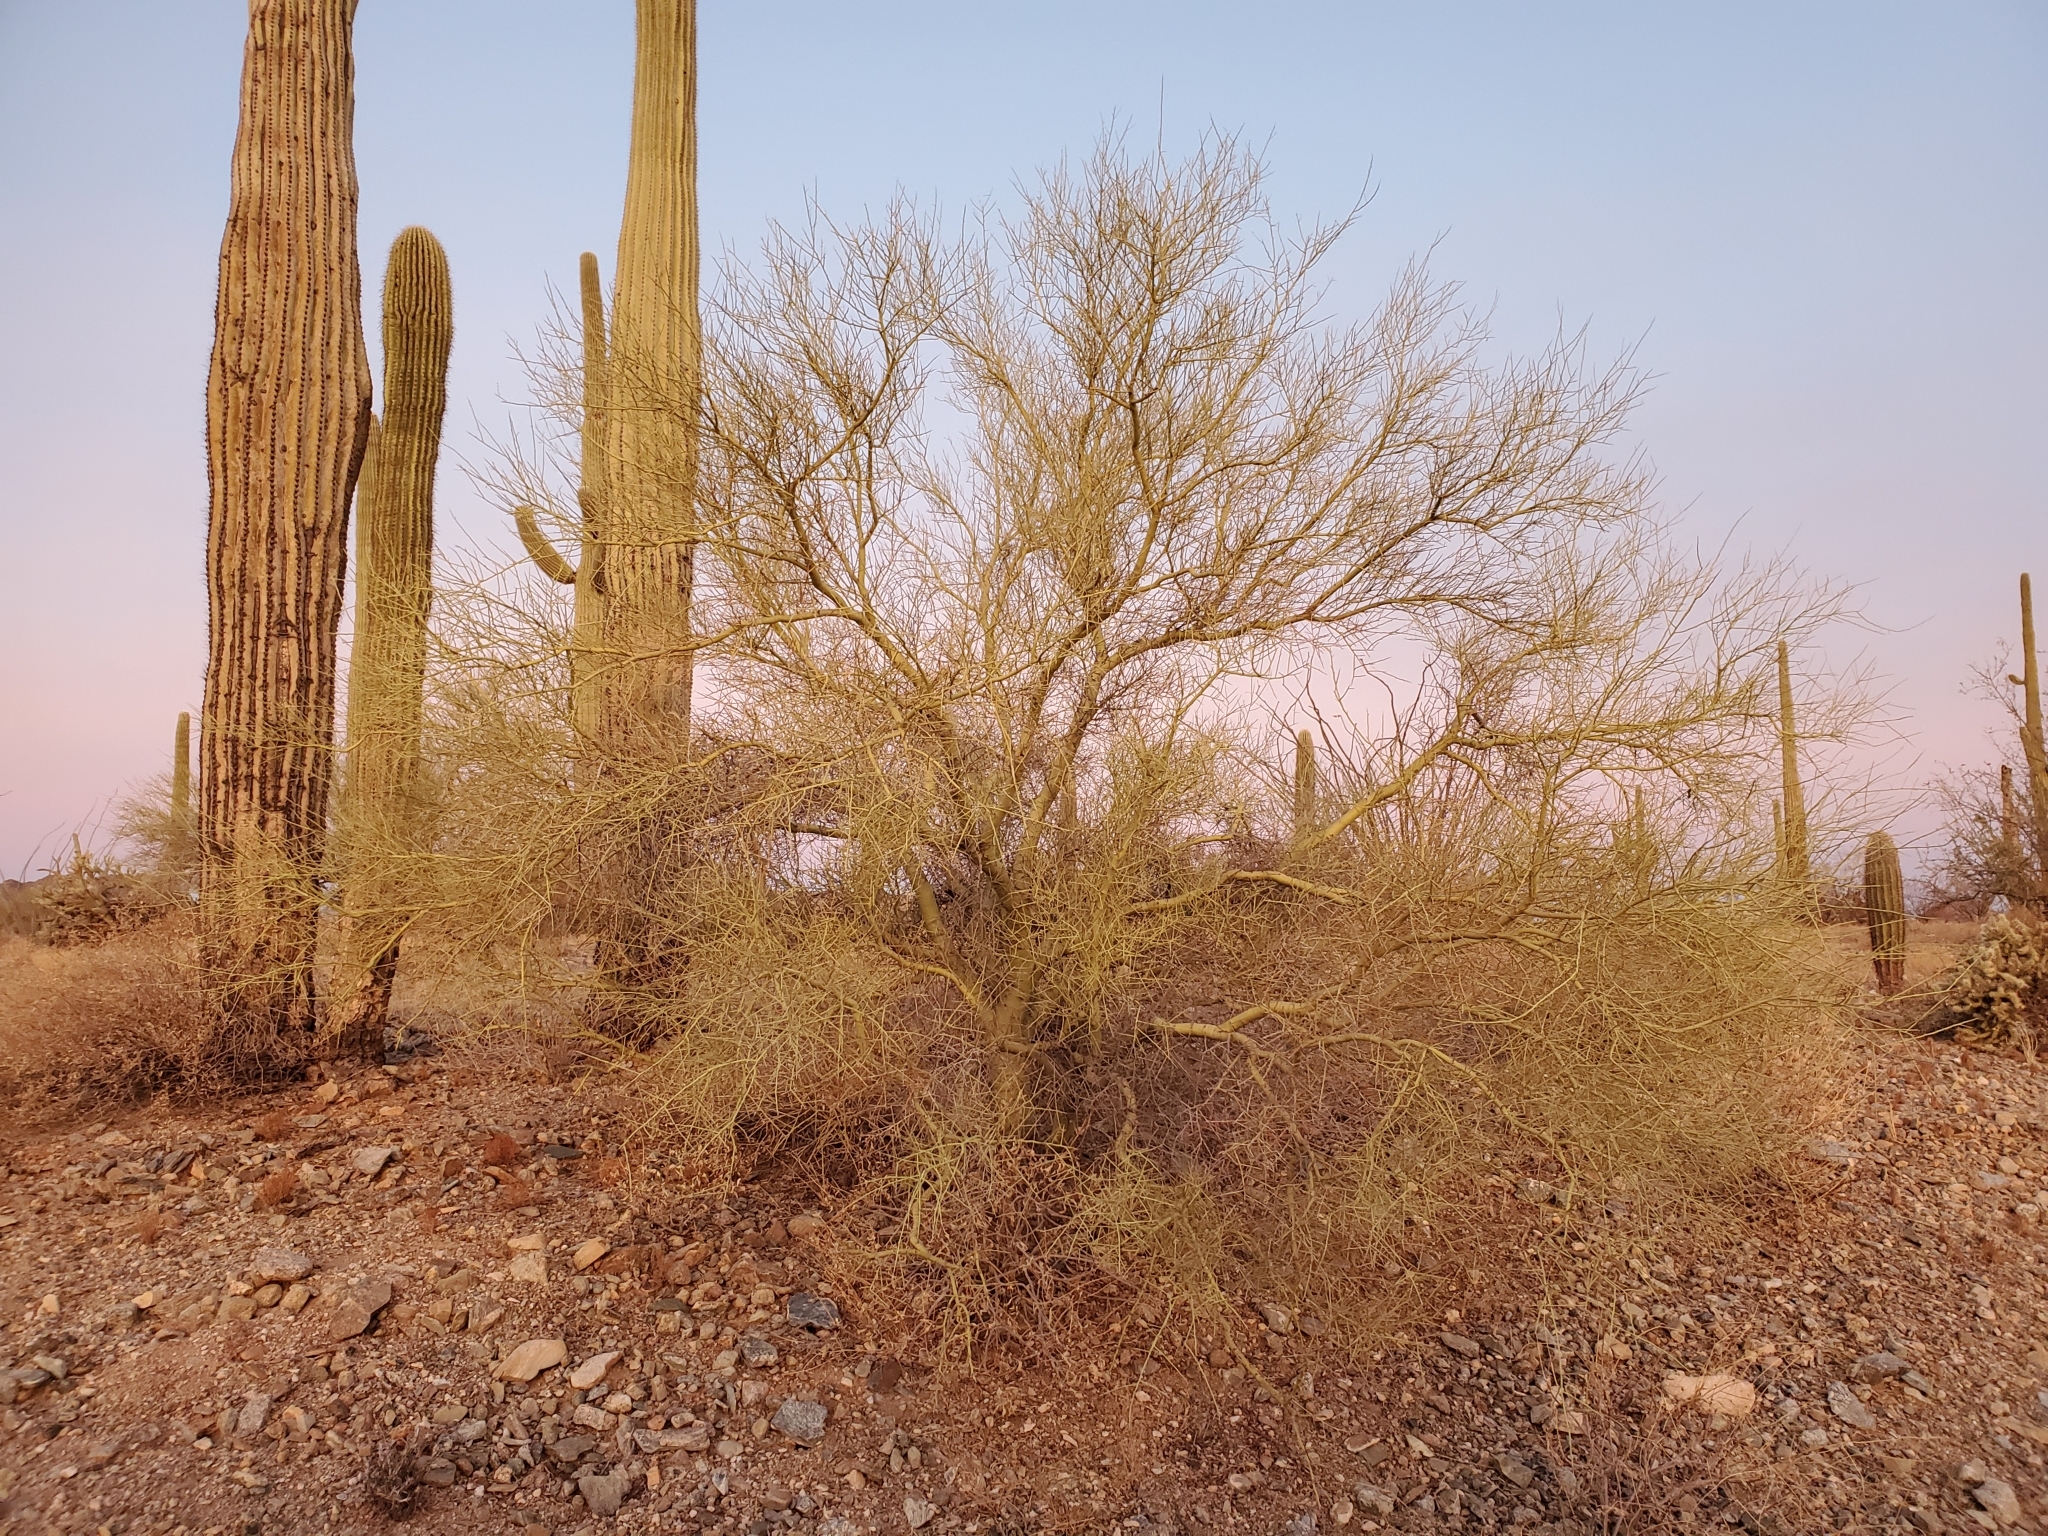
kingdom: Plantae
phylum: Tracheophyta
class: Magnoliopsida
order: Fabales
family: Fabaceae
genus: Parkinsonia
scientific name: Parkinsonia microphylla
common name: Yellow paloverde
